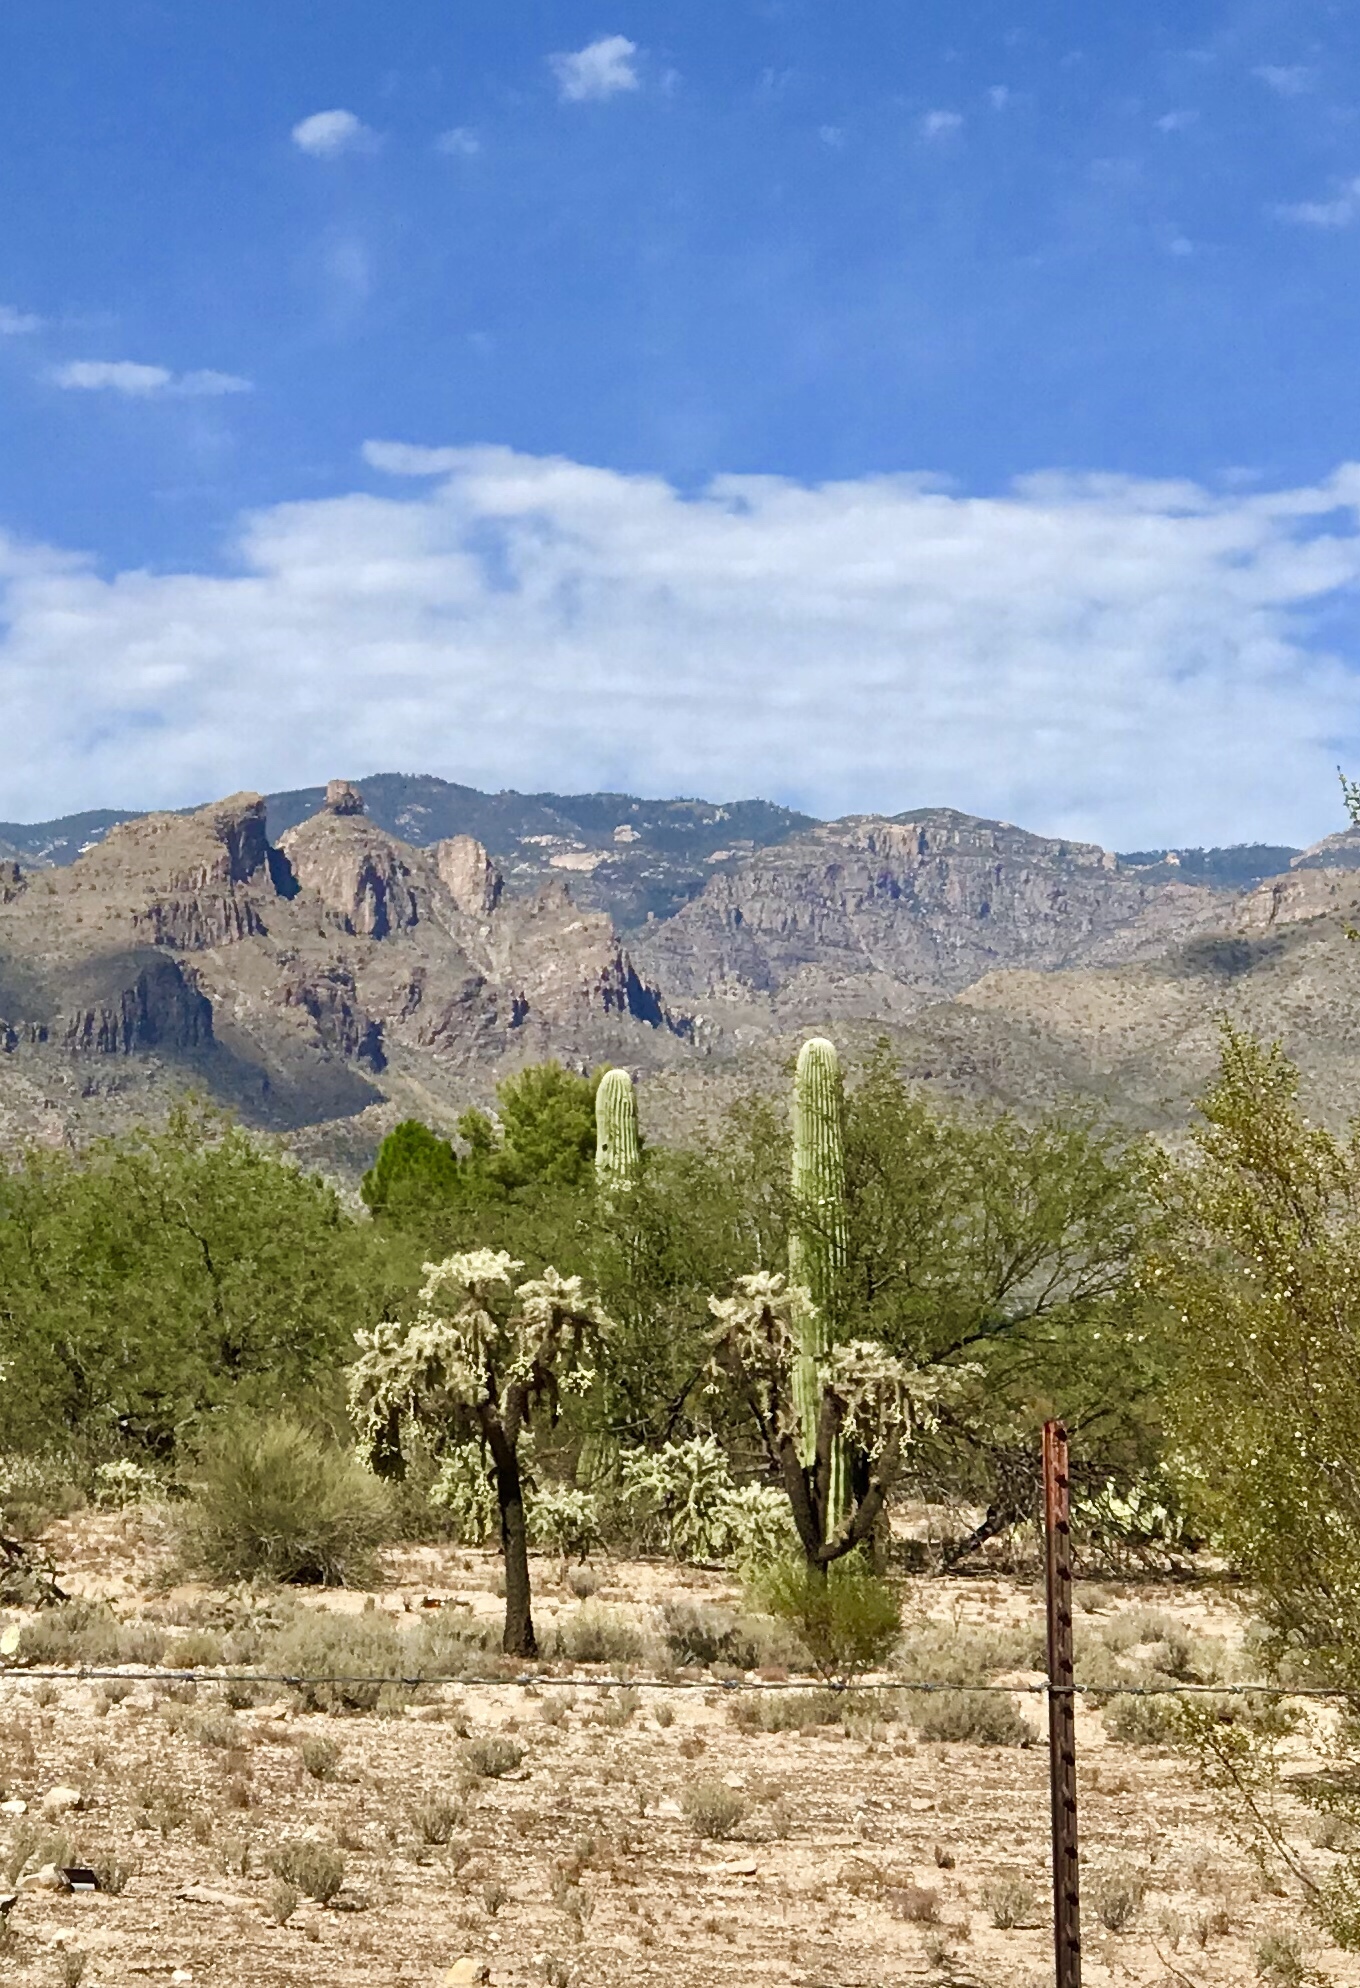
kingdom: Plantae
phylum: Tracheophyta
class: Magnoliopsida
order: Caryophyllales
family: Cactaceae
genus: Cylindropuntia
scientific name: Cylindropuntia fulgida
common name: Jumping cholla
